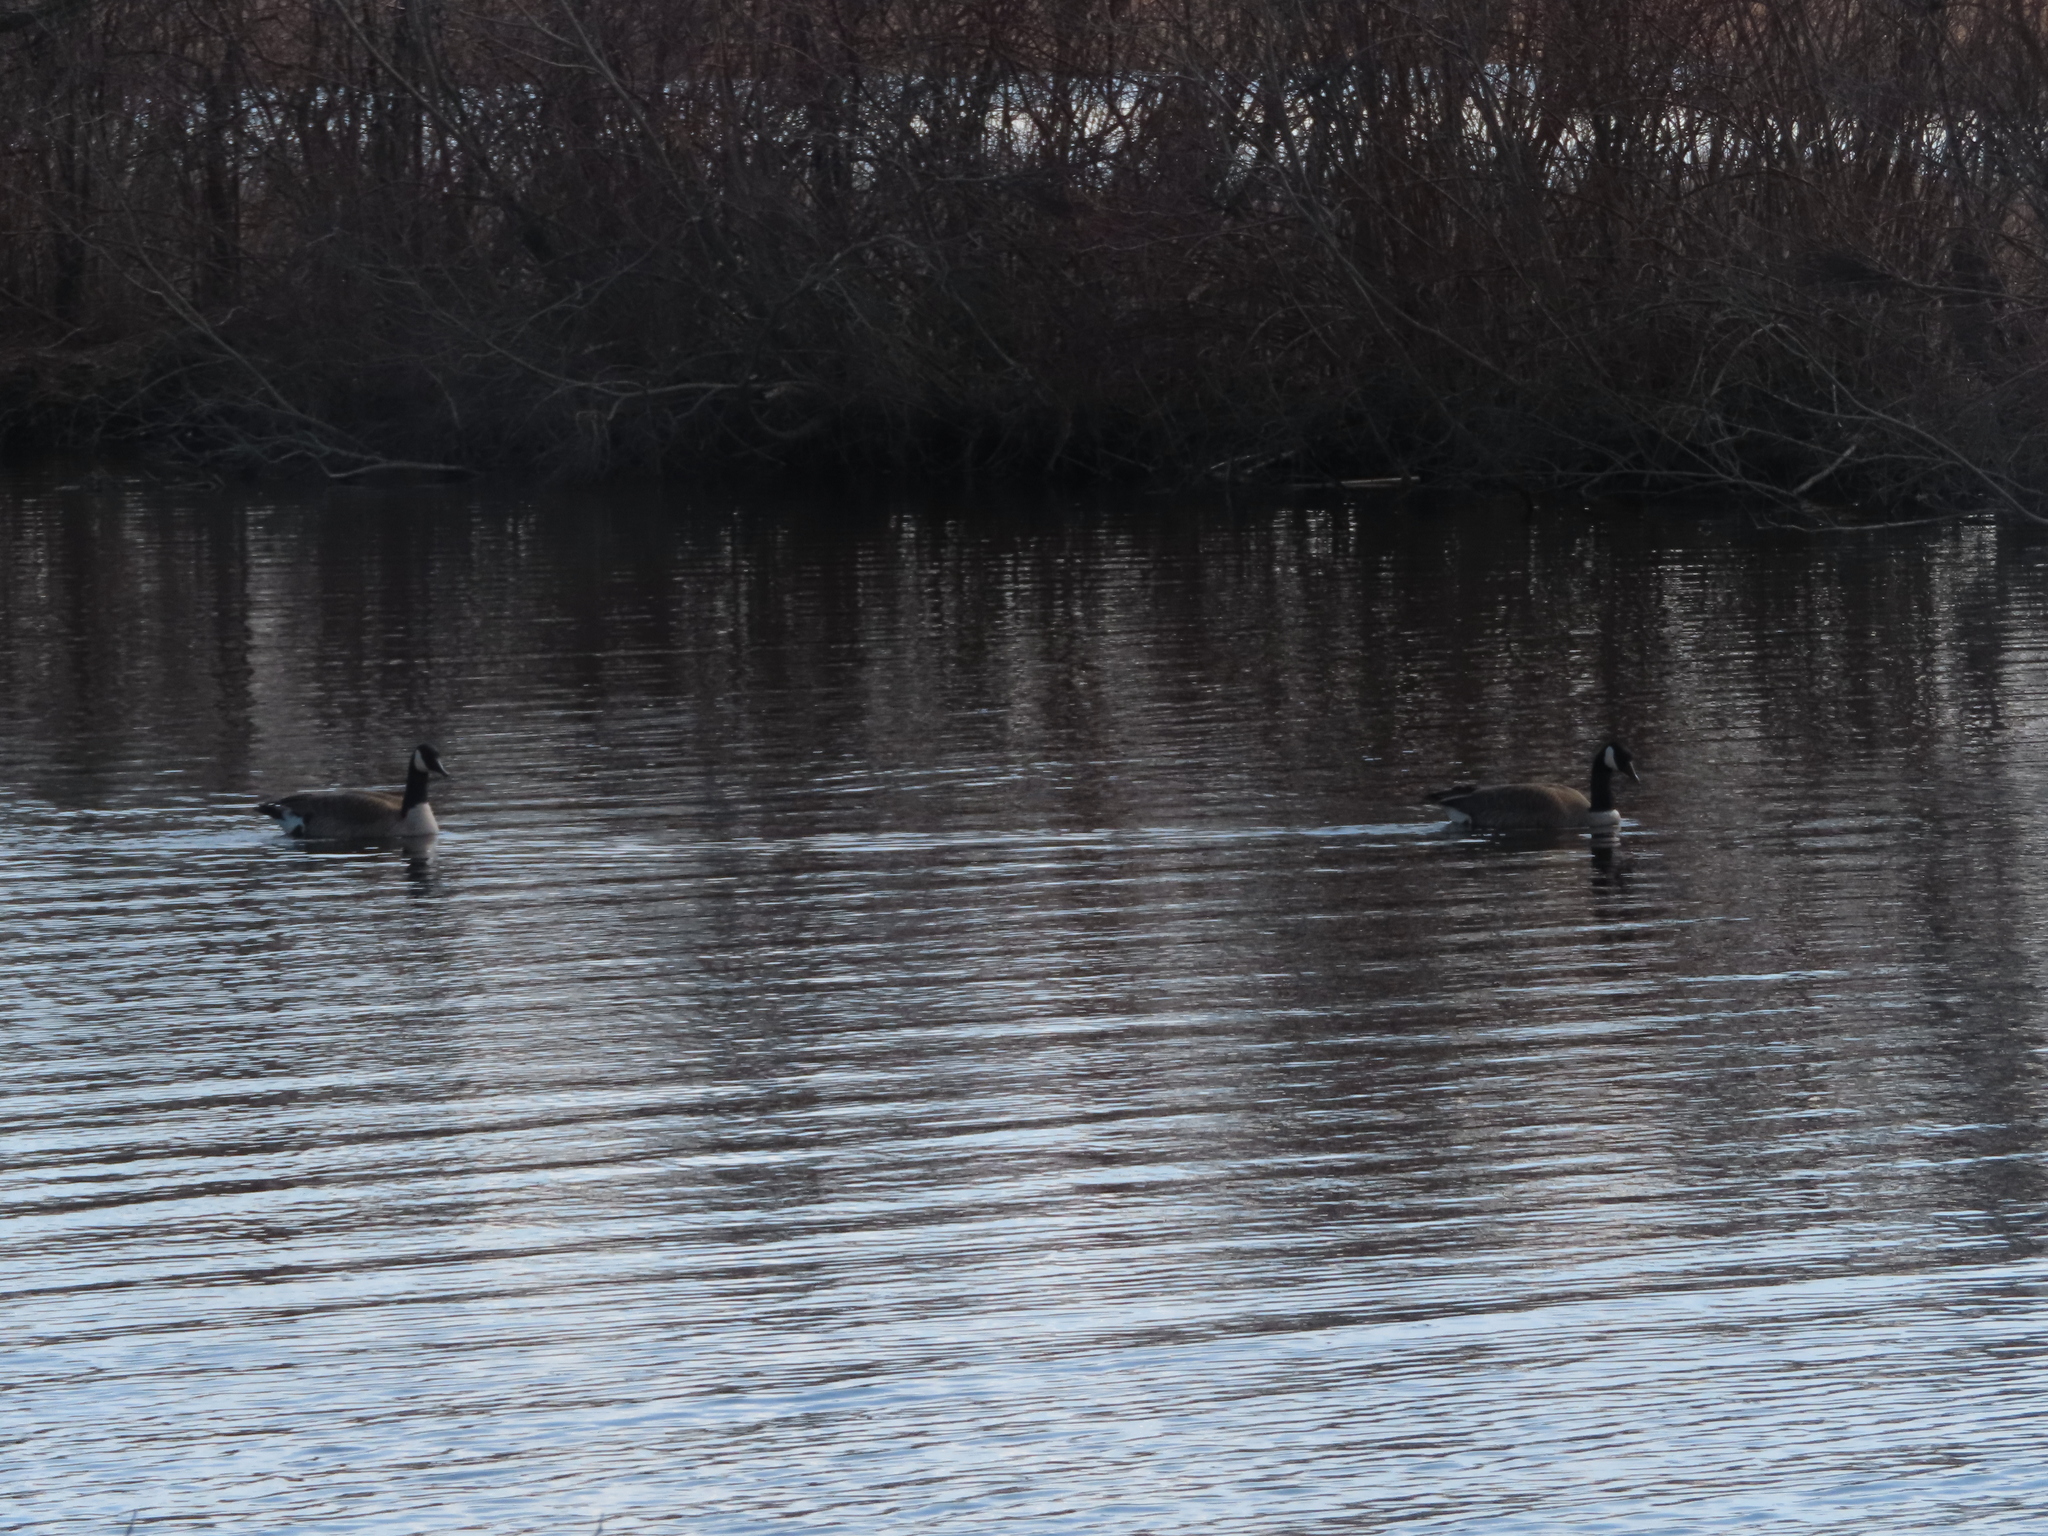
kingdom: Animalia
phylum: Chordata
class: Aves
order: Anseriformes
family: Anatidae
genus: Branta
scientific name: Branta canadensis
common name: Canada goose
